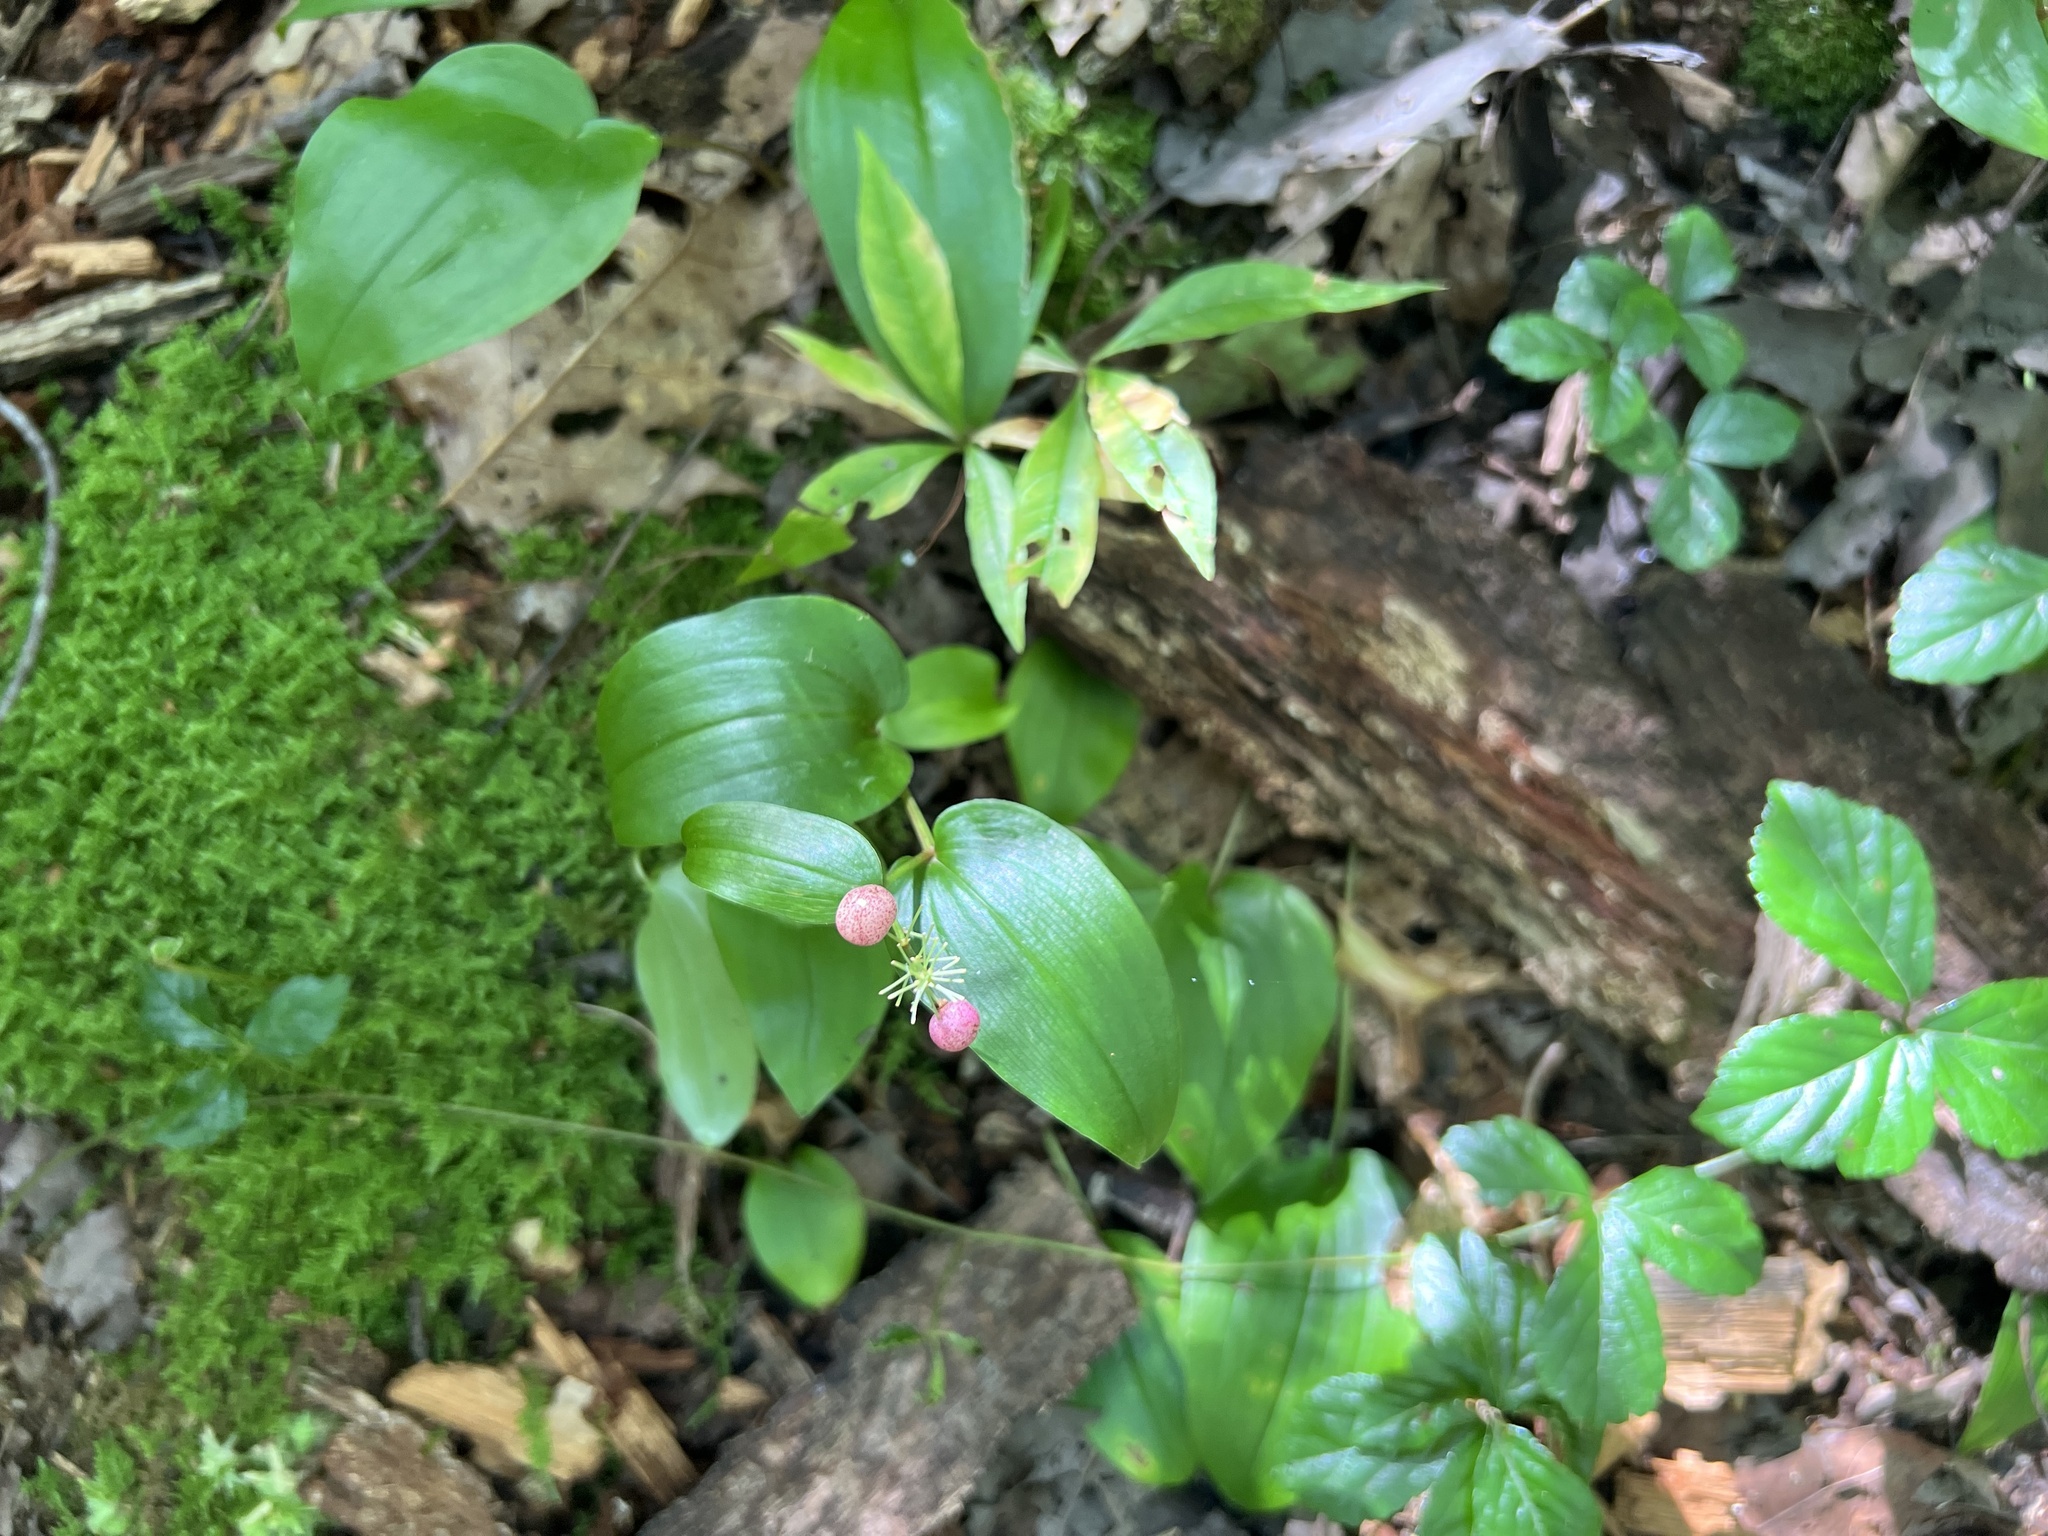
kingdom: Plantae
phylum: Tracheophyta
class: Liliopsida
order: Asparagales
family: Asparagaceae
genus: Maianthemum
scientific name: Maianthemum canadense
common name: False lily-of-the-valley
